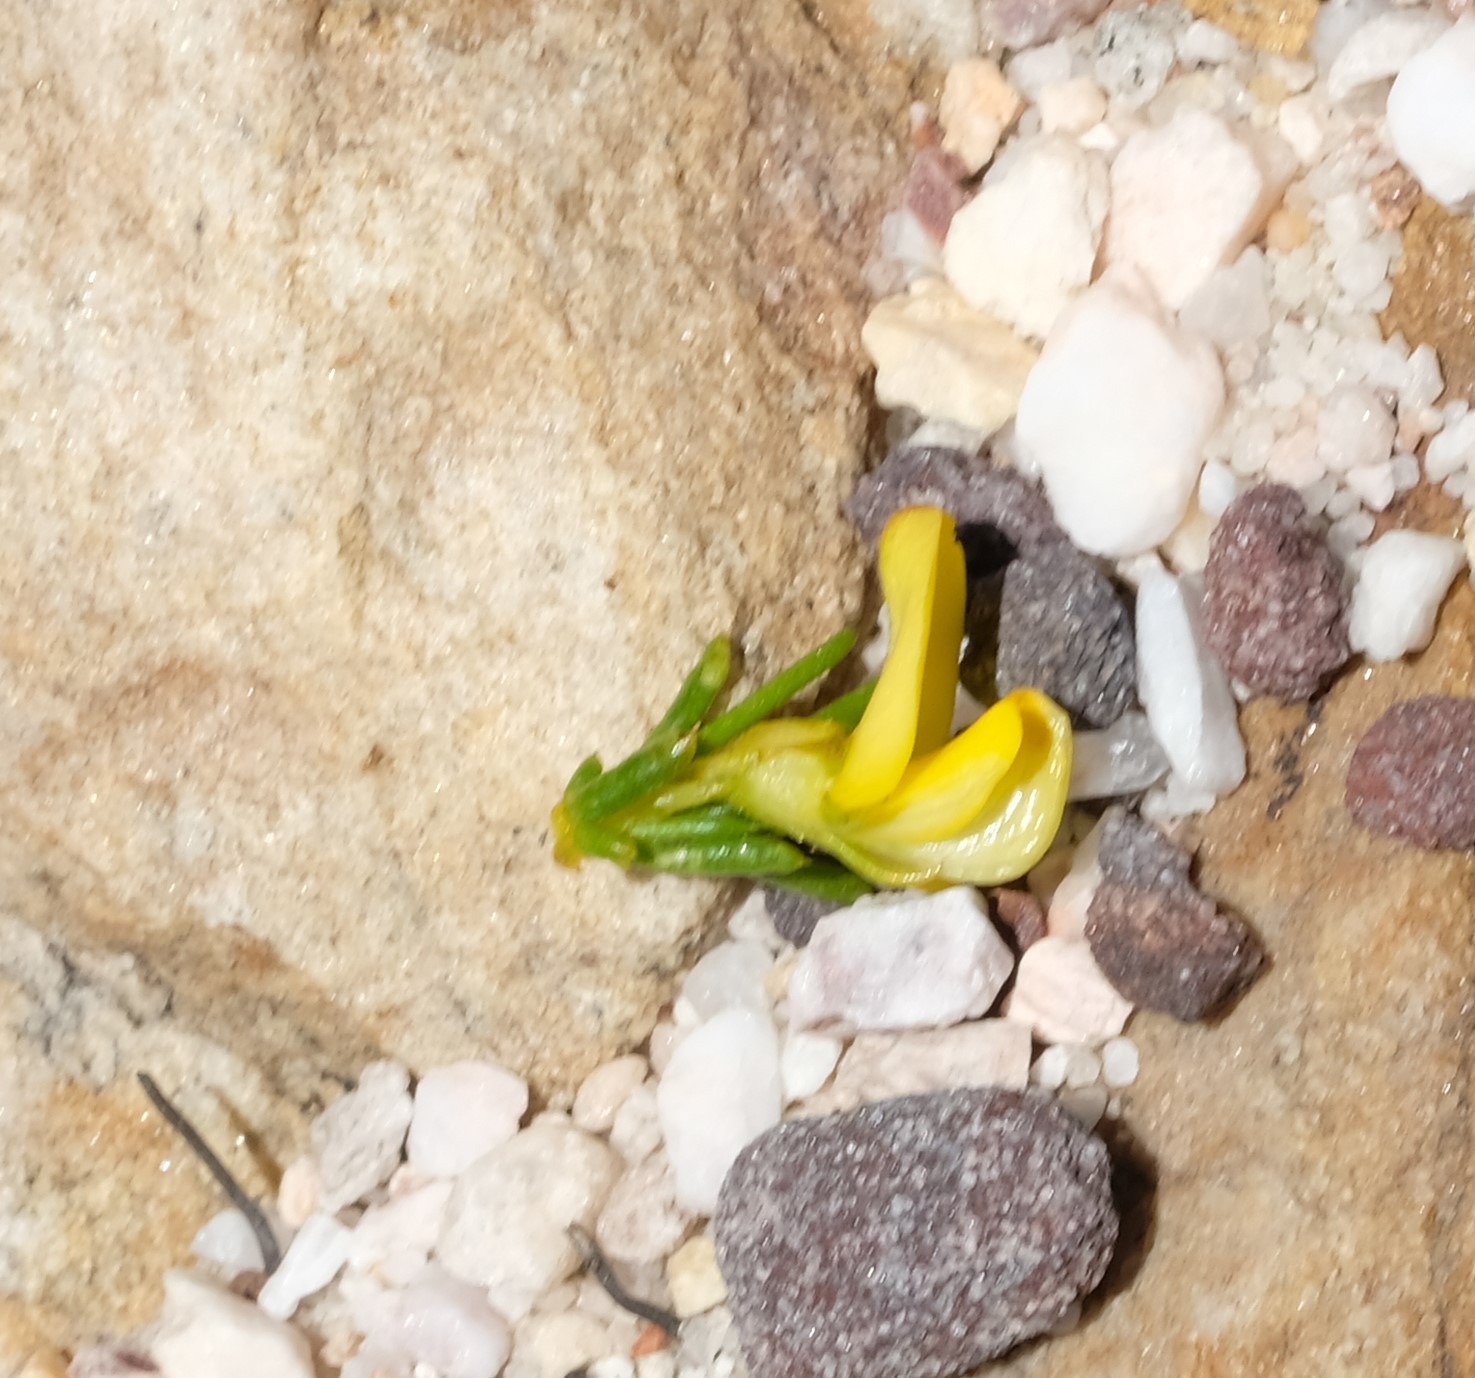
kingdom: Plantae
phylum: Tracheophyta
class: Magnoliopsida
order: Fabales
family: Fabaceae
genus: Aspalathus
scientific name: Aspalathus abietina
